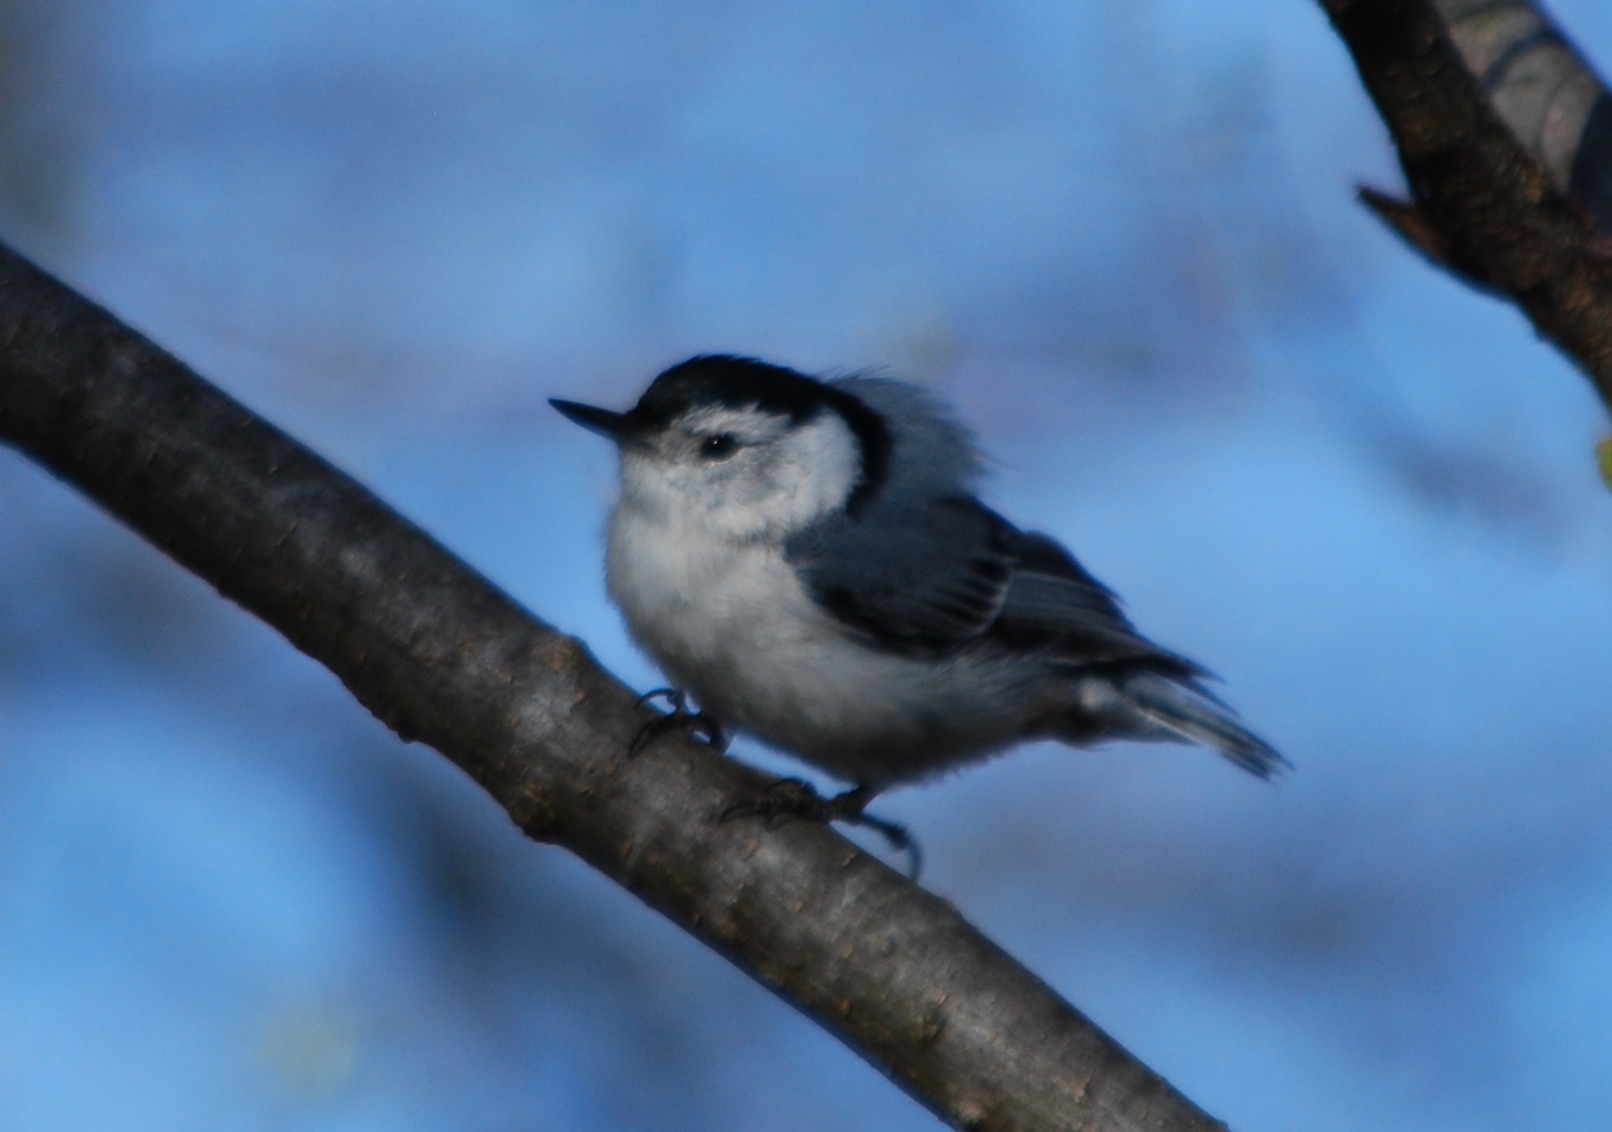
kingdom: Animalia
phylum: Chordata
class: Aves
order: Passeriformes
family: Sittidae
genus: Sitta
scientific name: Sitta carolinensis
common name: White-breasted nuthatch
